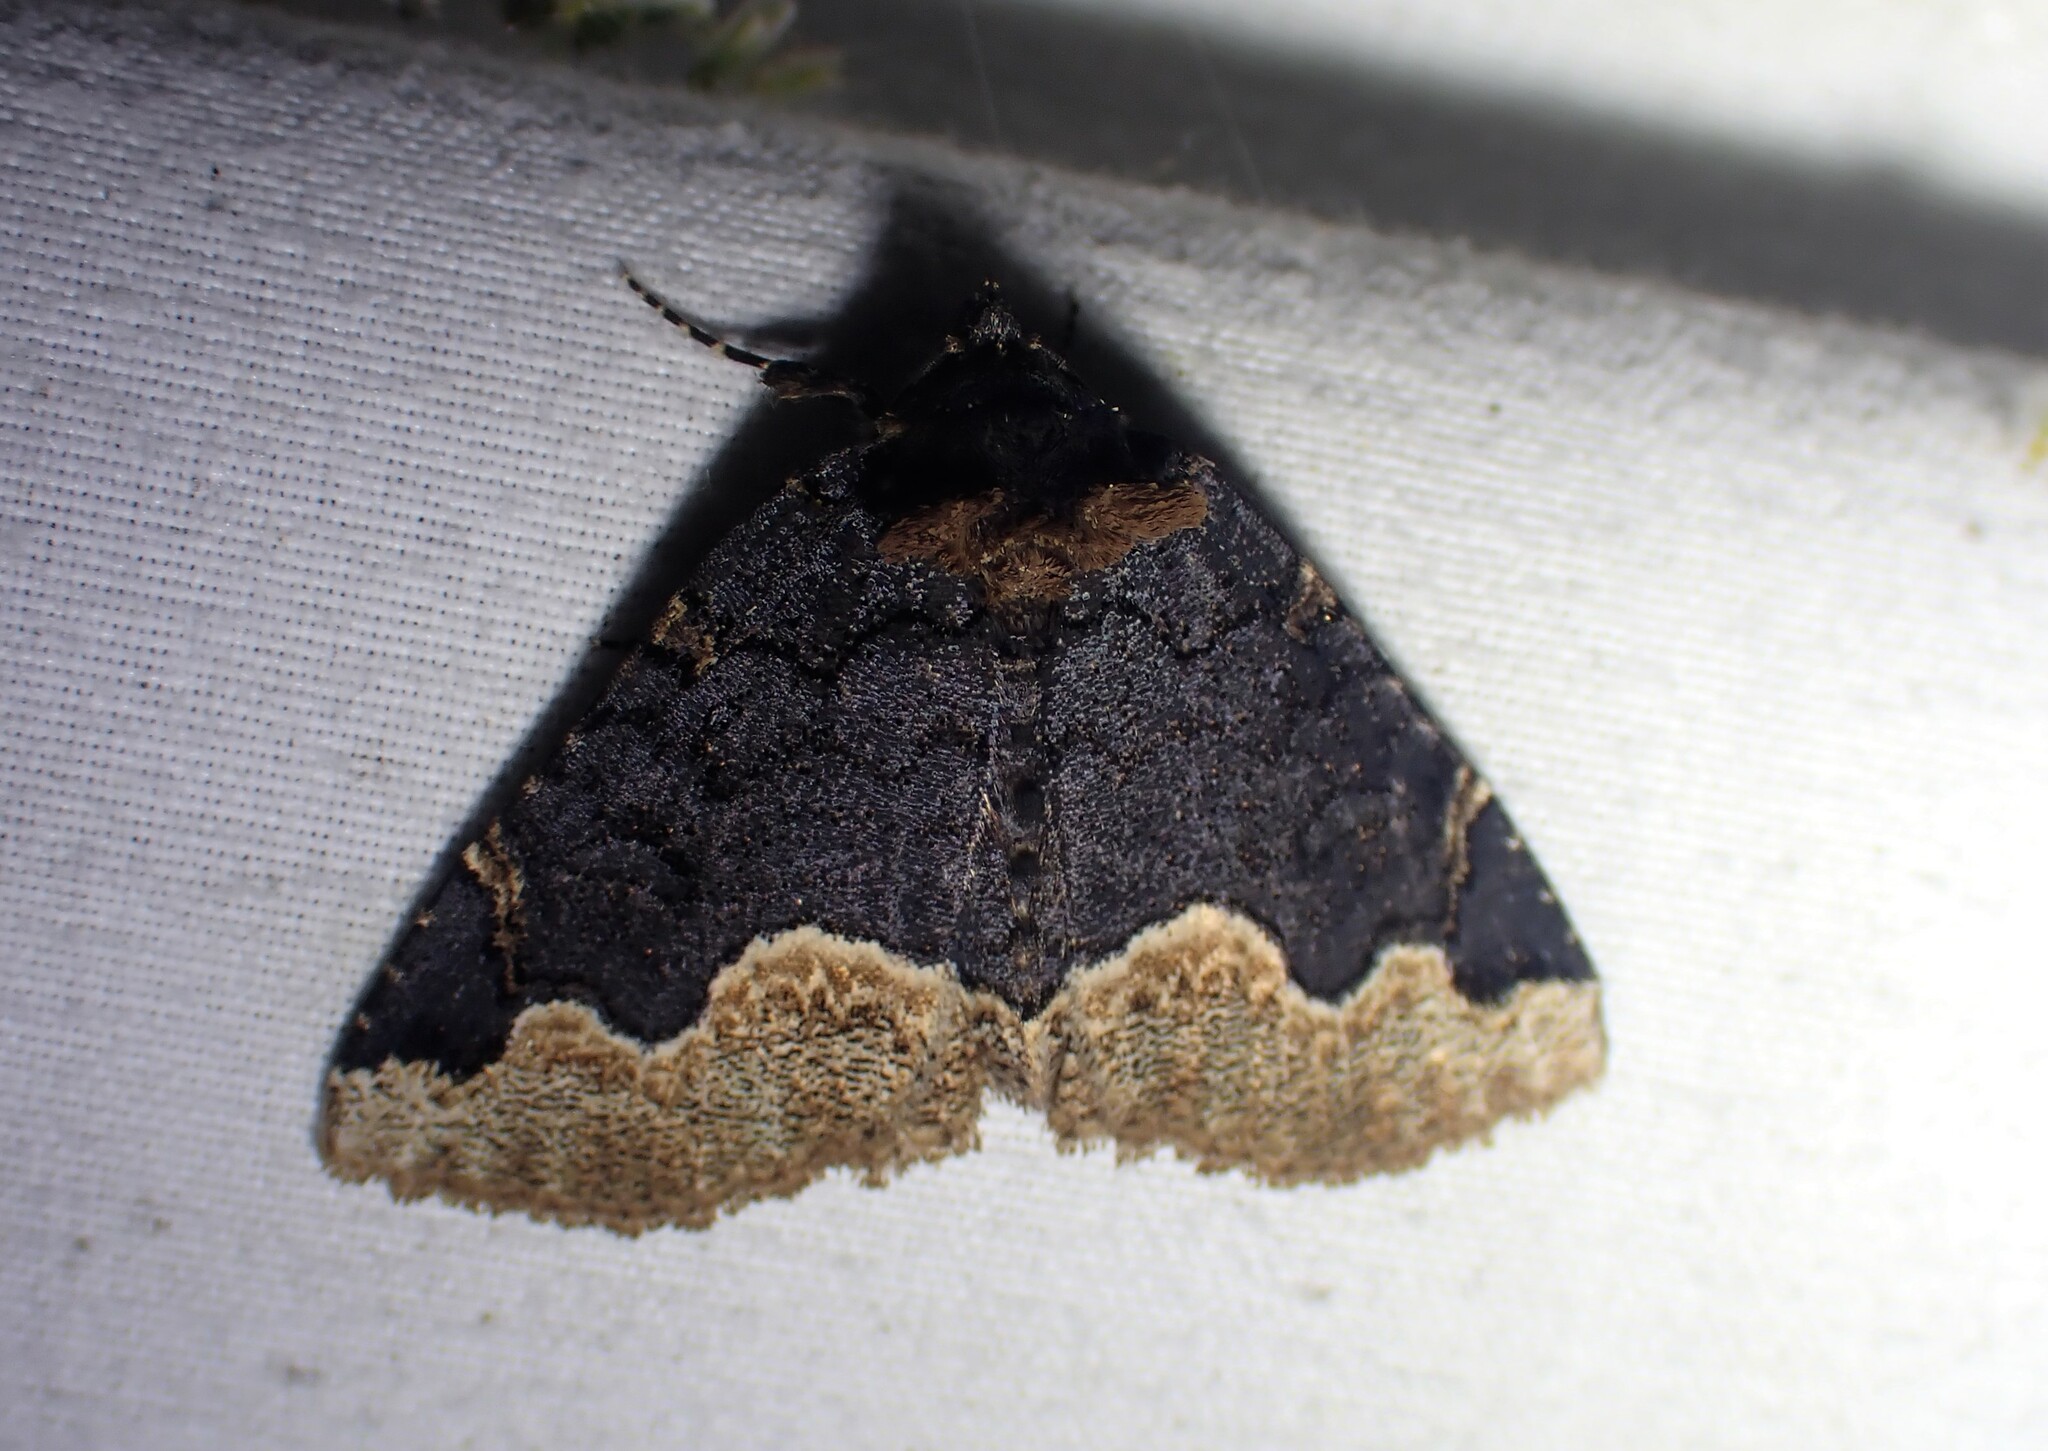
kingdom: Animalia
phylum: Arthropoda
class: Insecta
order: Lepidoptera
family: Erebidae
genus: Zale
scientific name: Zale horrida
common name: Horrid zale moth
